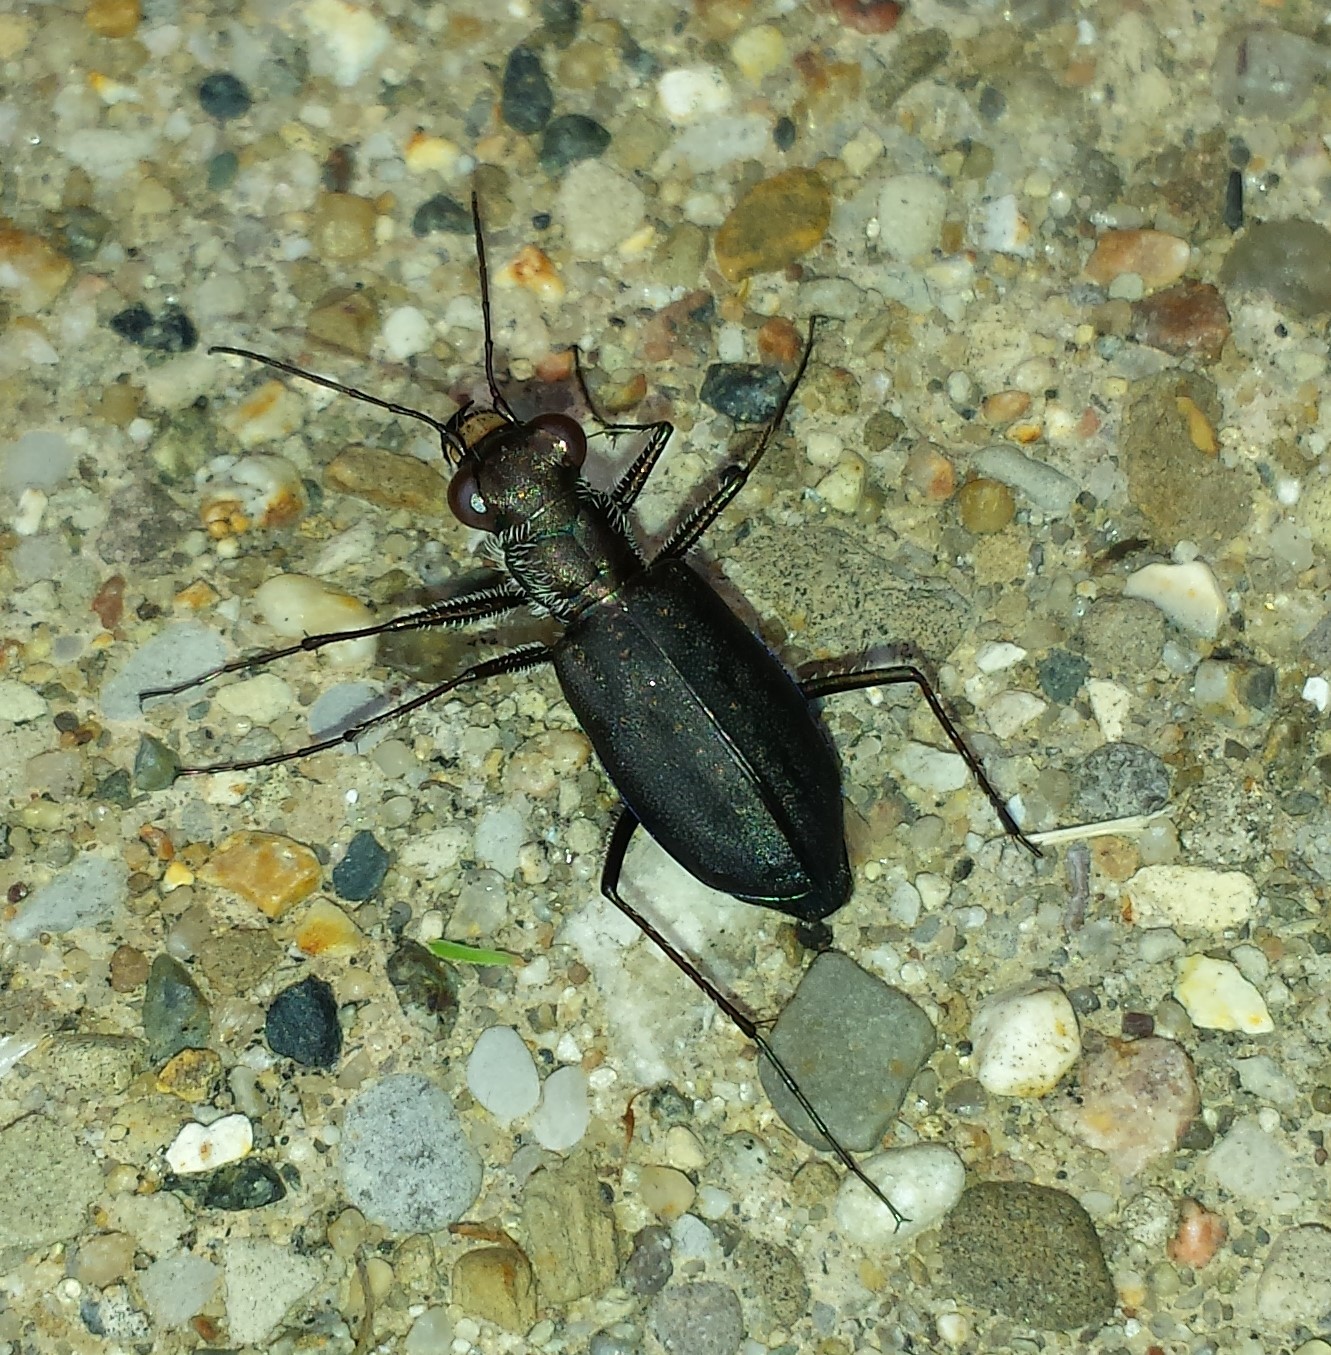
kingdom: Animalia
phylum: Arthropoda
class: Insecta
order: Coleoptera
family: Carabidae
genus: Cicindela
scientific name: Cicindela punctulata
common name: Punctured tiger beetle
